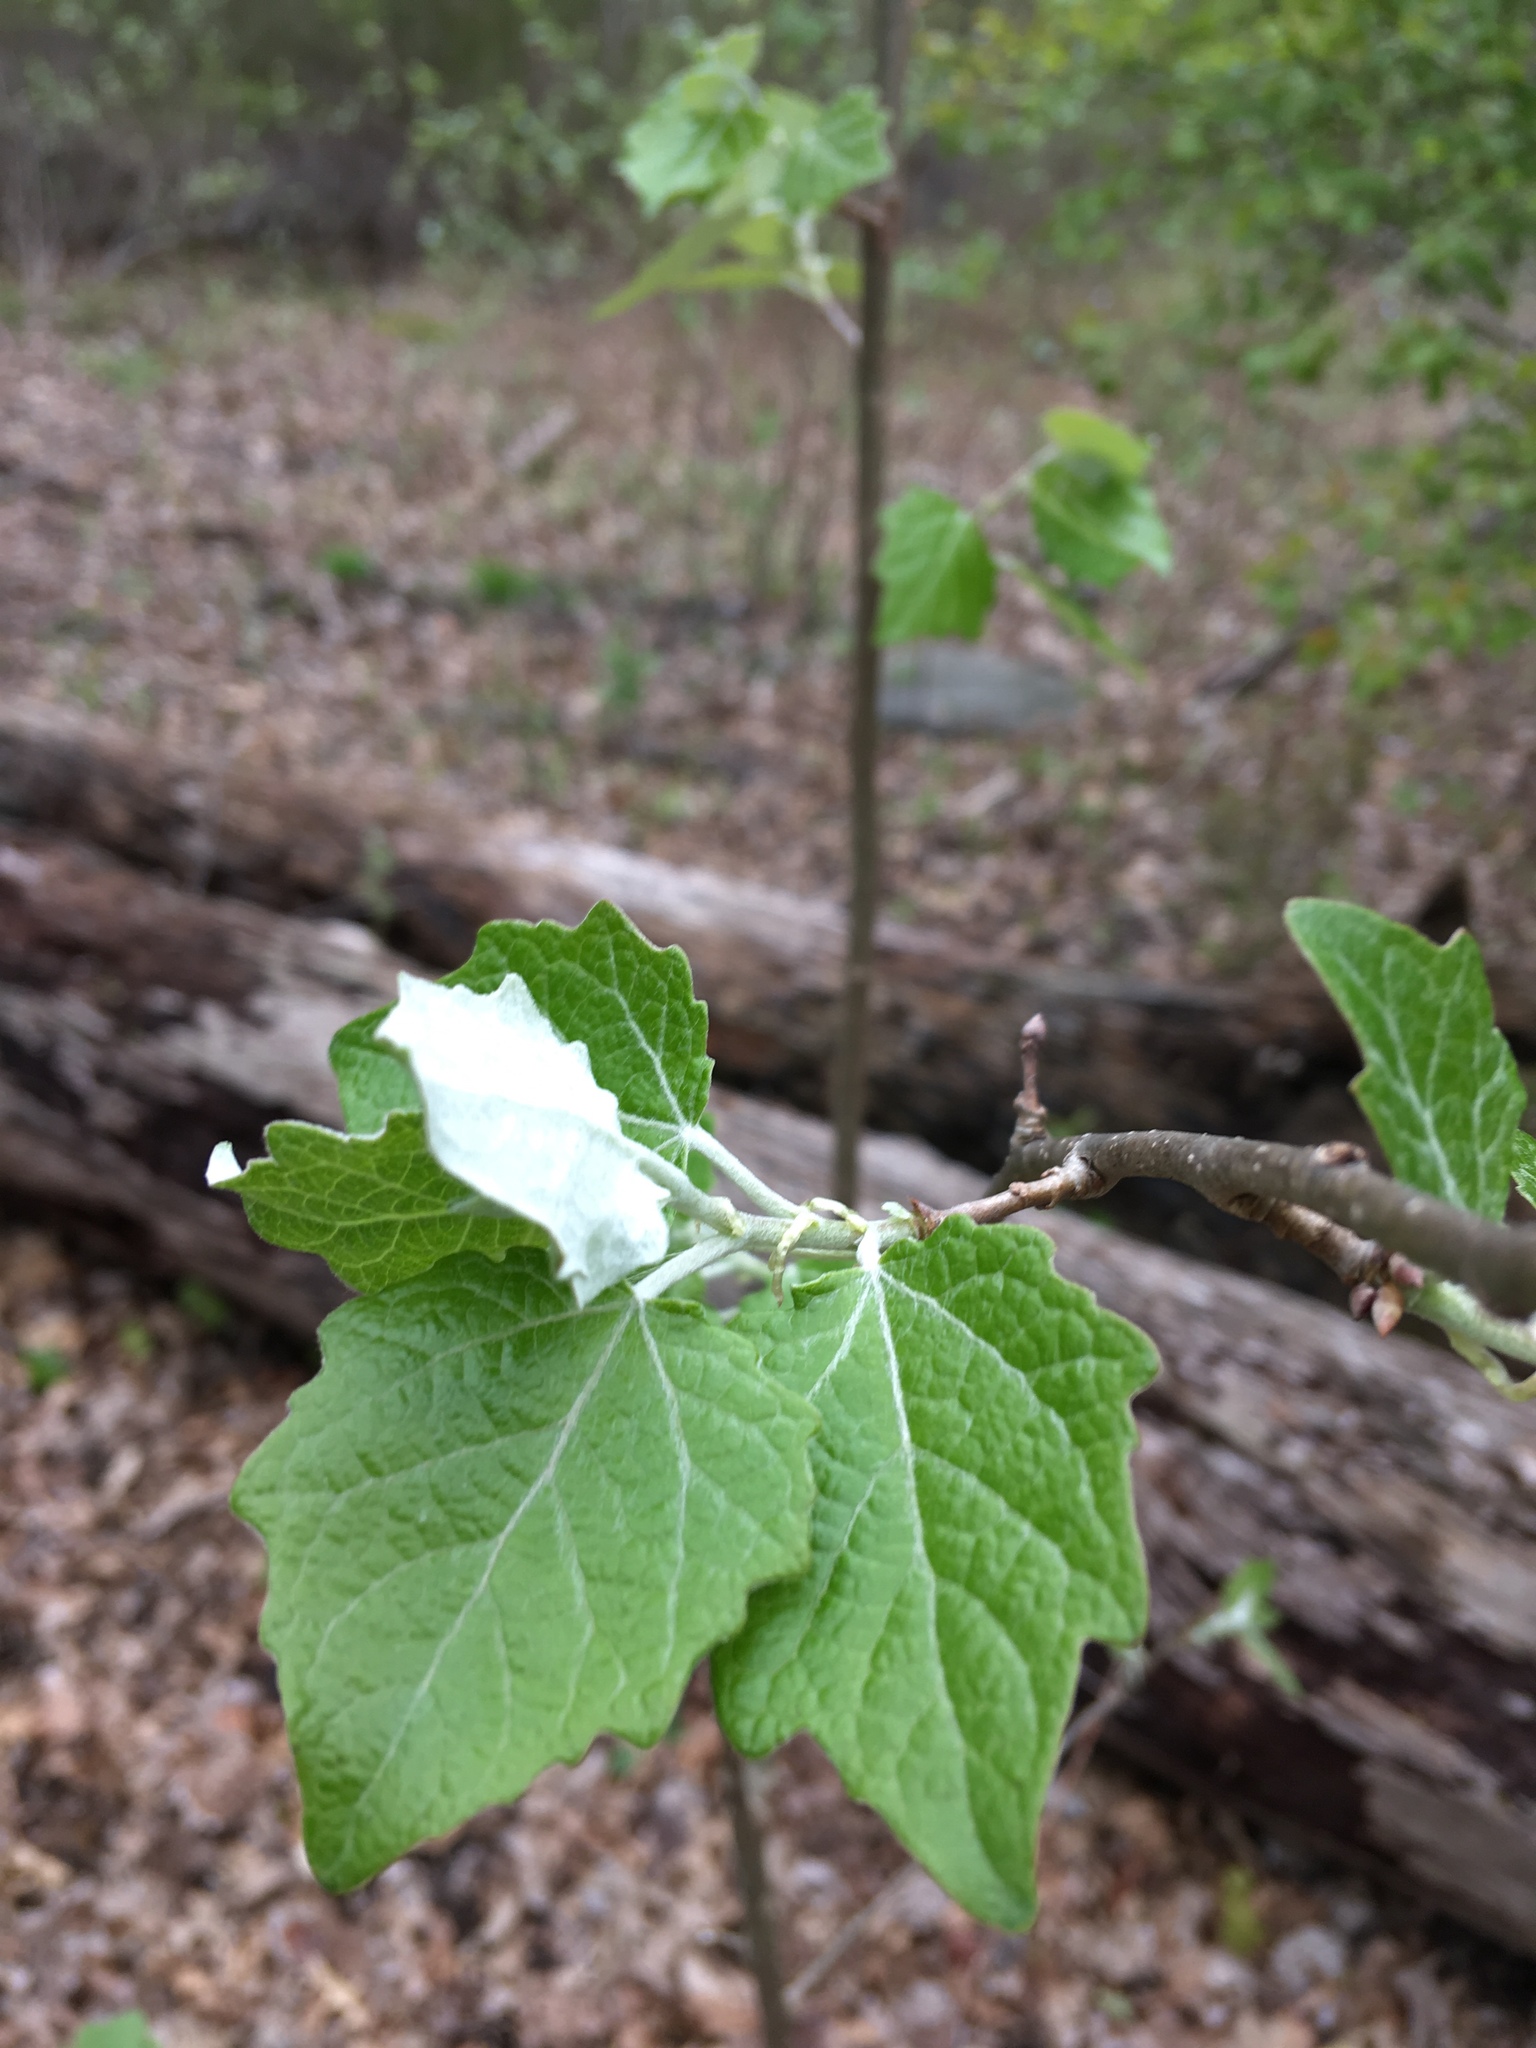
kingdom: Plantae
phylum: Tracheophyta
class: Magnoliopsida
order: Malpighiales
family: Salicaceae
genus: Populus
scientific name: Populus canescens
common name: Gray poplar
